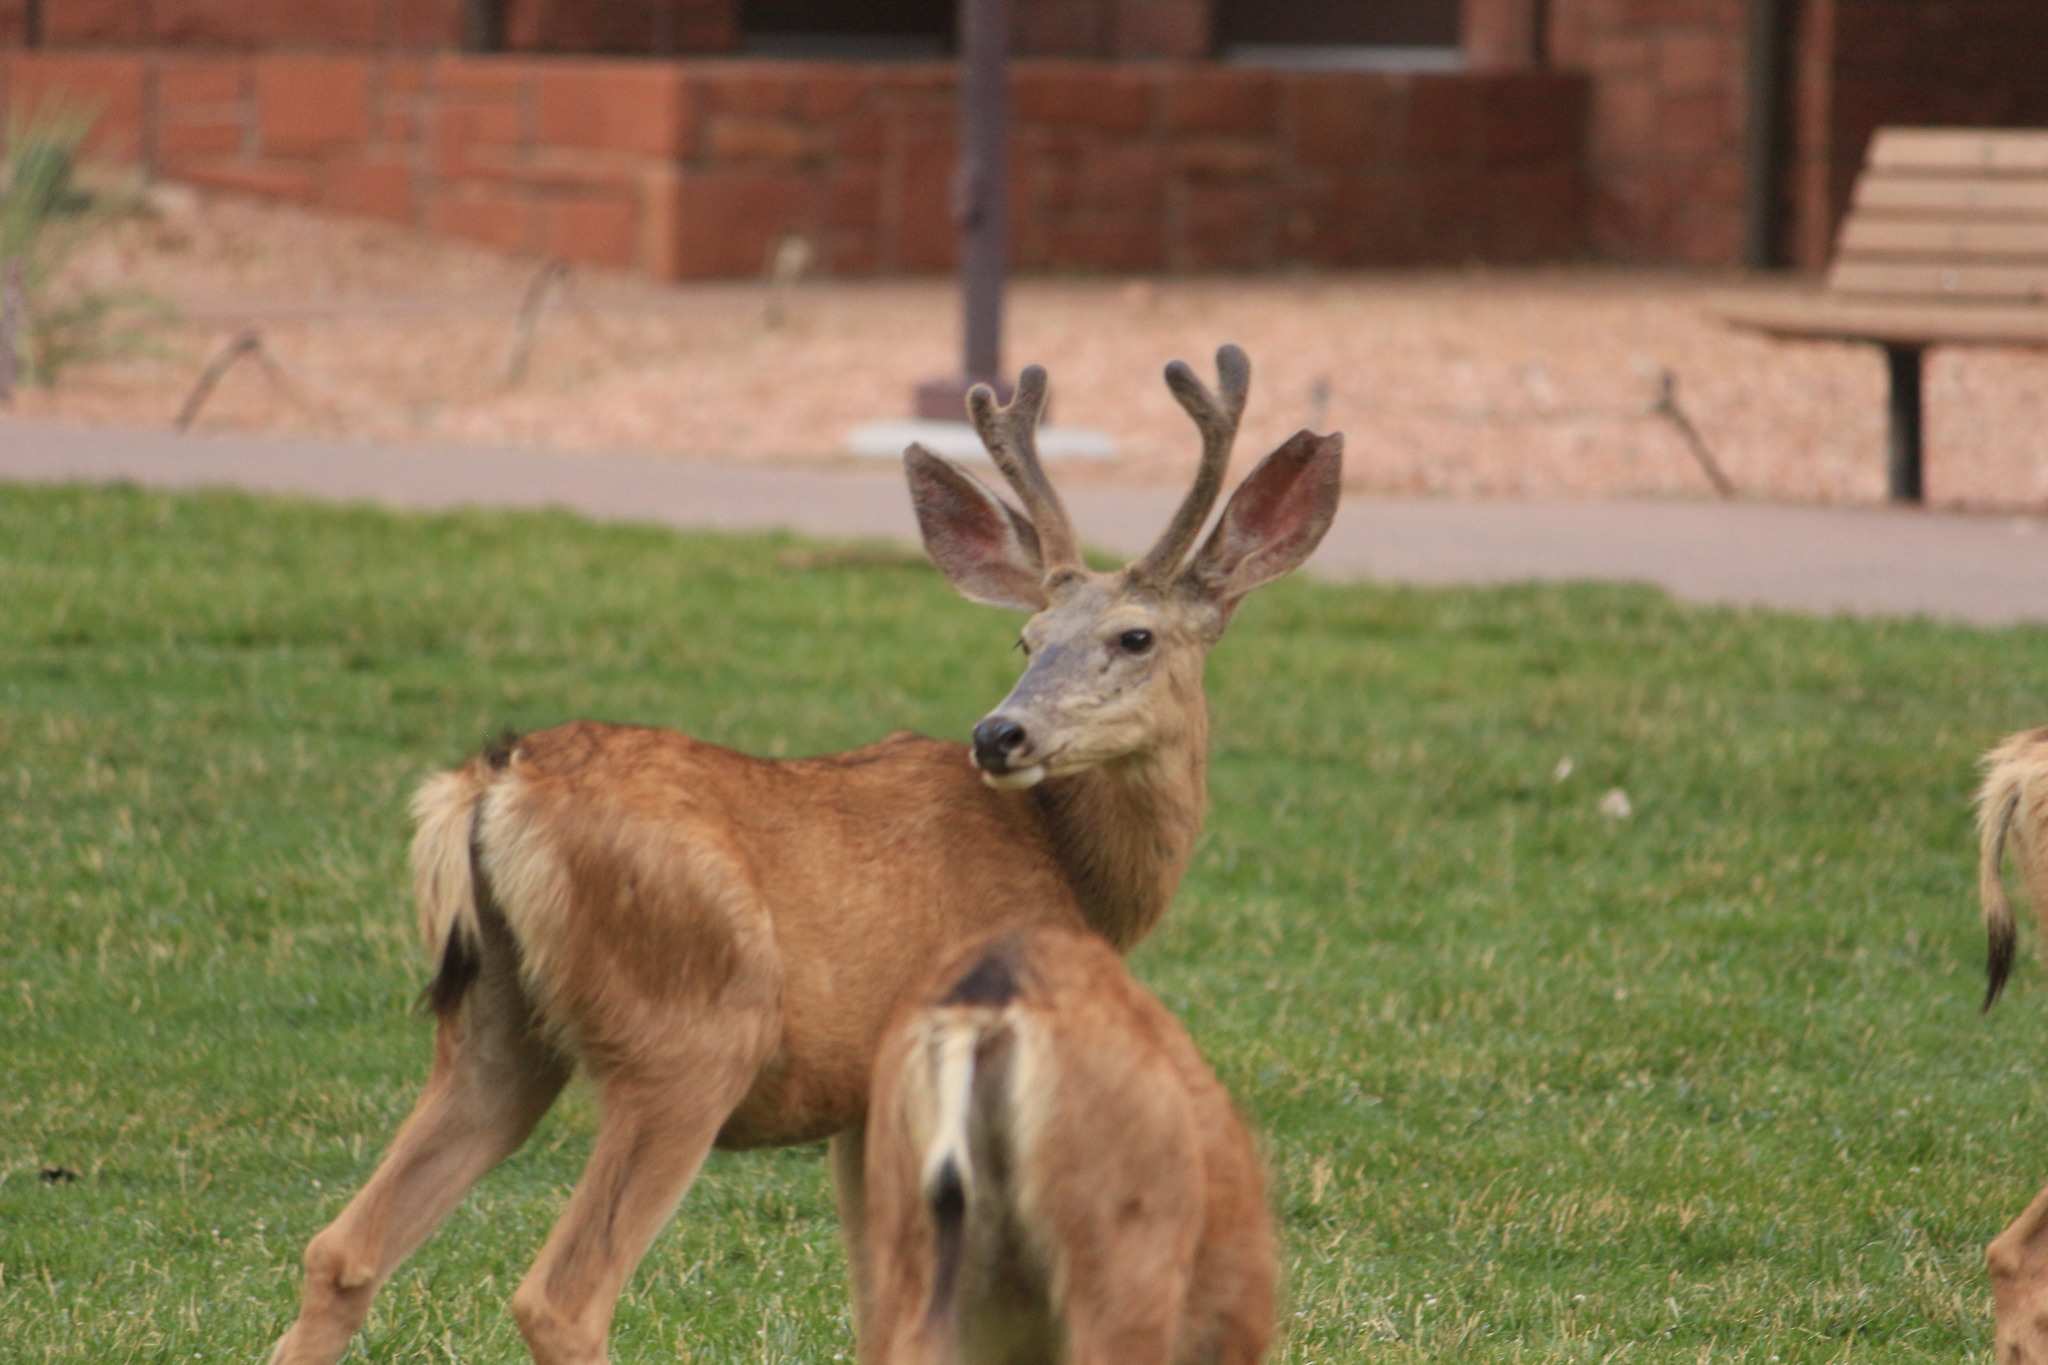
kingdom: Animalia
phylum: Chordata
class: Mammalia
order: Artiodactyla
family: Cervidae
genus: Odocoileus
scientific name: Odocoileus hemionus
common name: Mule deer
